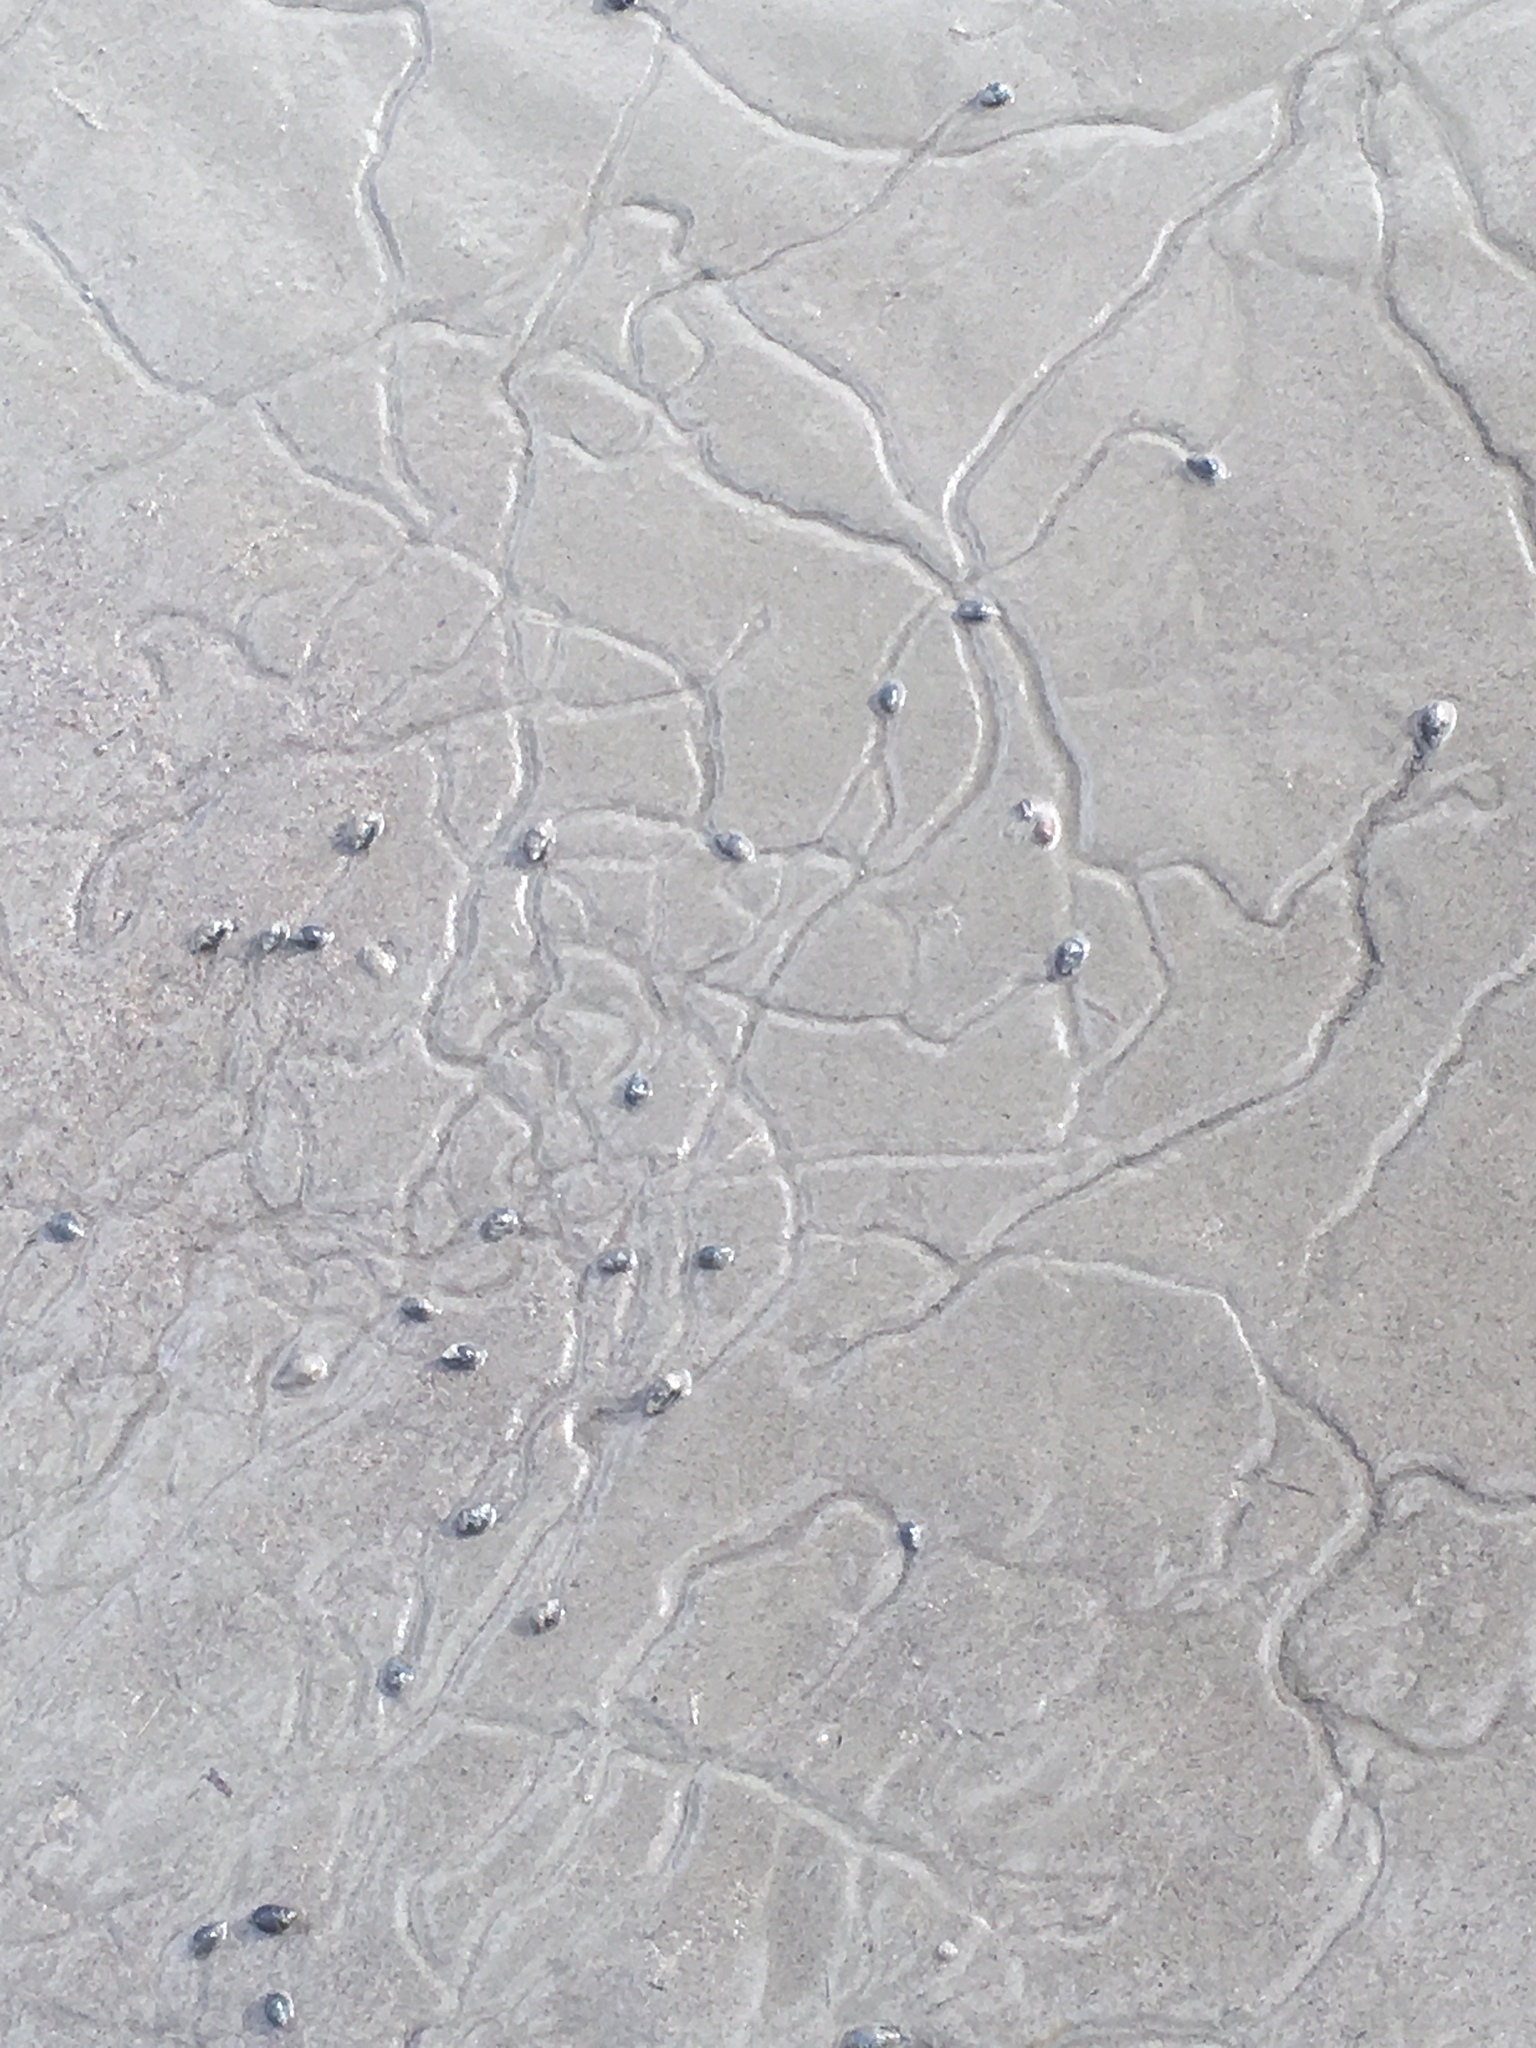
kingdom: Animalia
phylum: Mollusca
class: Gastropoda
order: Neogastropoda
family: Nassariidae
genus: Ilyanassa
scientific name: Ilyanassa obsoleta
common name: Eastern mudsnail
